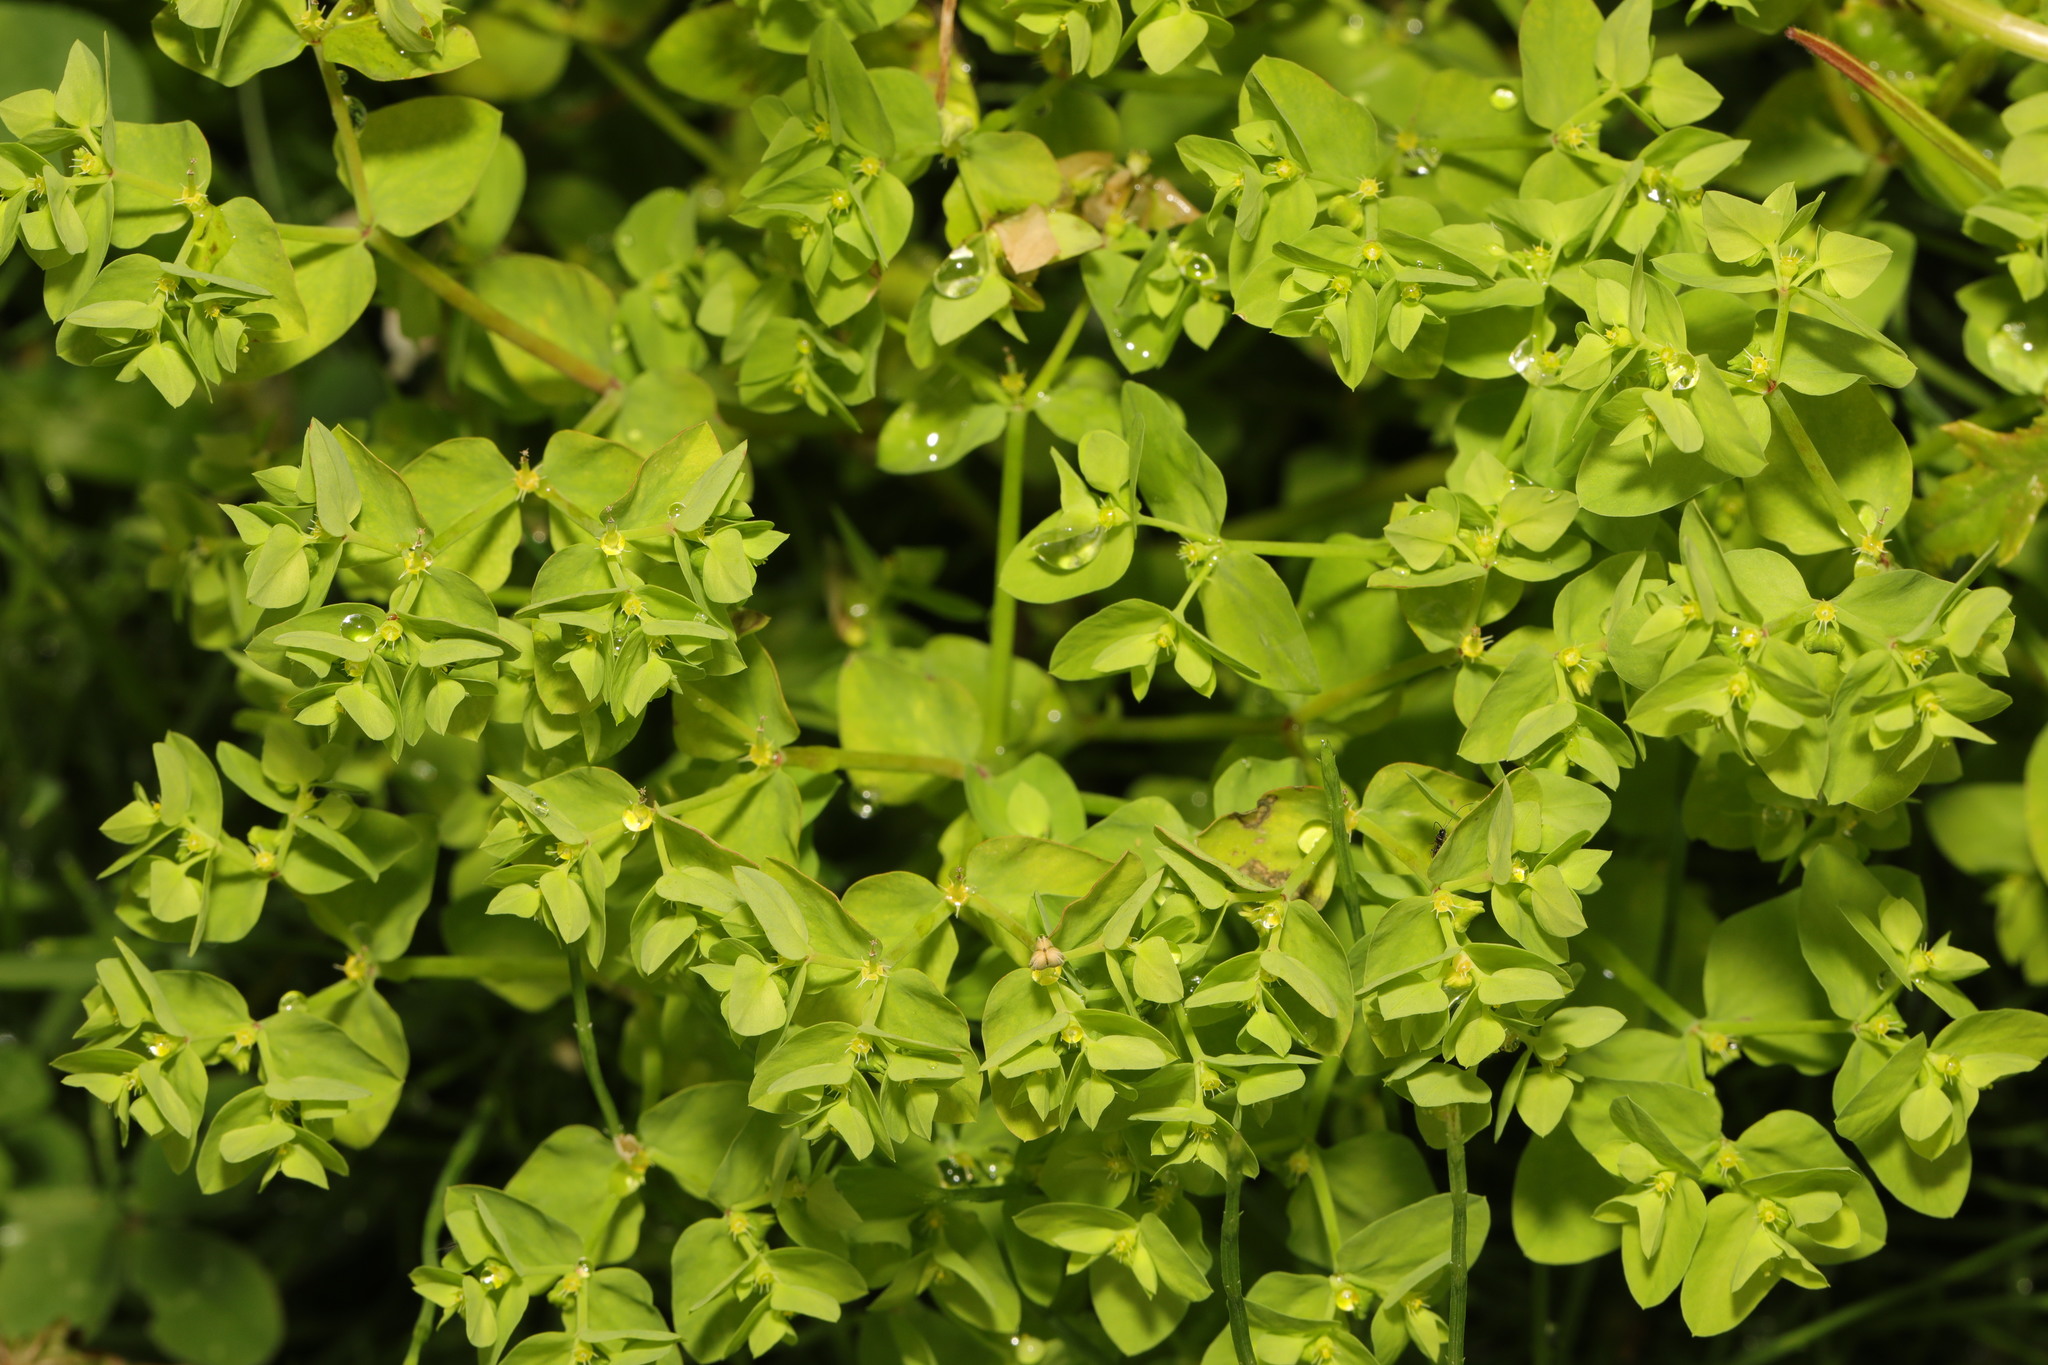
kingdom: Plantae
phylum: Tracheophyta
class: Magnoliopsida
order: Malpighiales
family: Euphorbiaceae
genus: Euphorbia
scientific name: Euphorbia peplus
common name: Petty spurge
